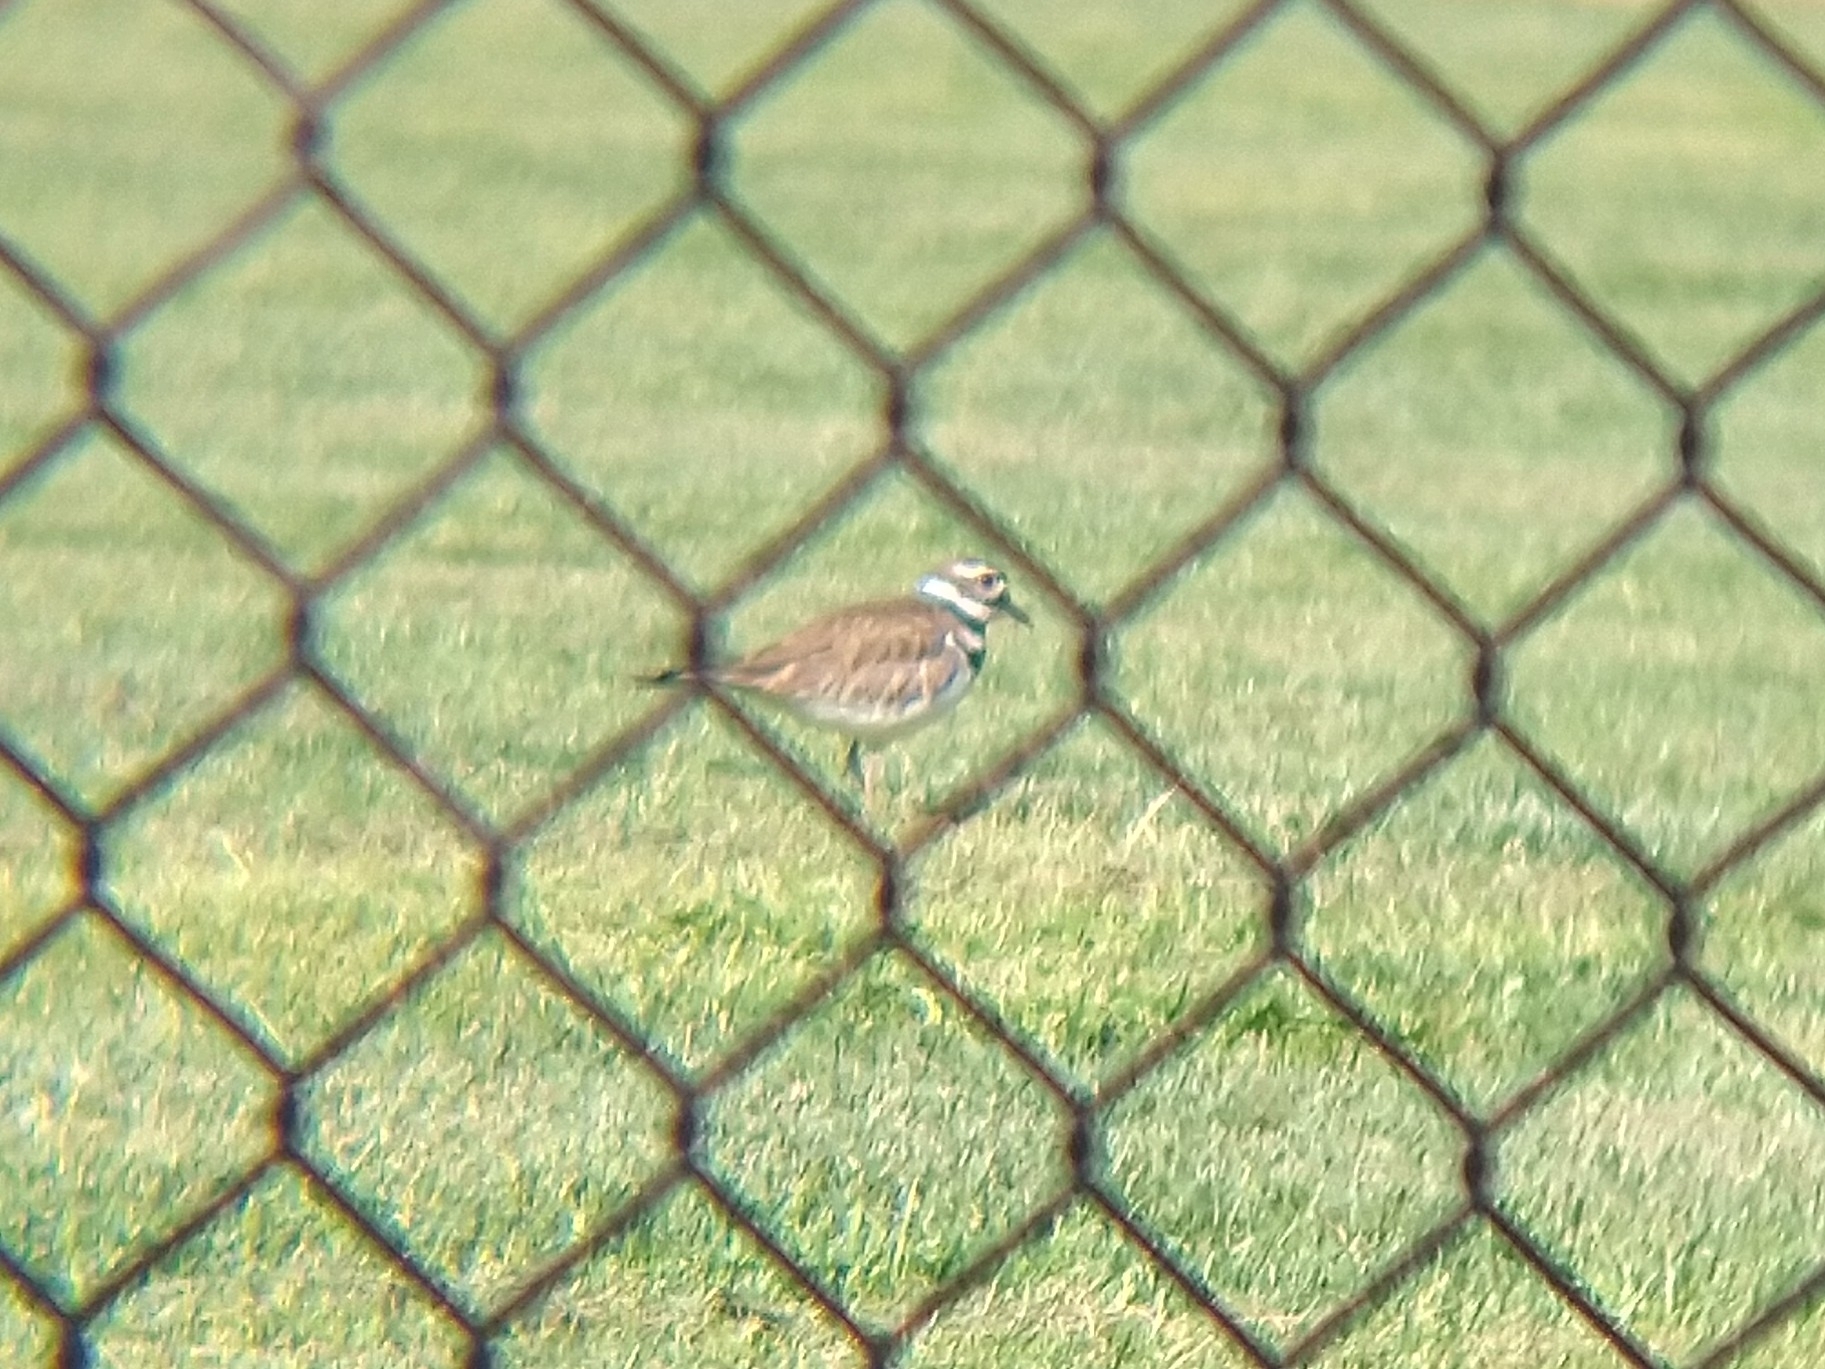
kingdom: Animalia
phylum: Chordata
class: Aves
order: Charadriiformes
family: Charadriidae
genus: Charadrius
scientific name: Charadrius vociferus
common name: Killdeer
